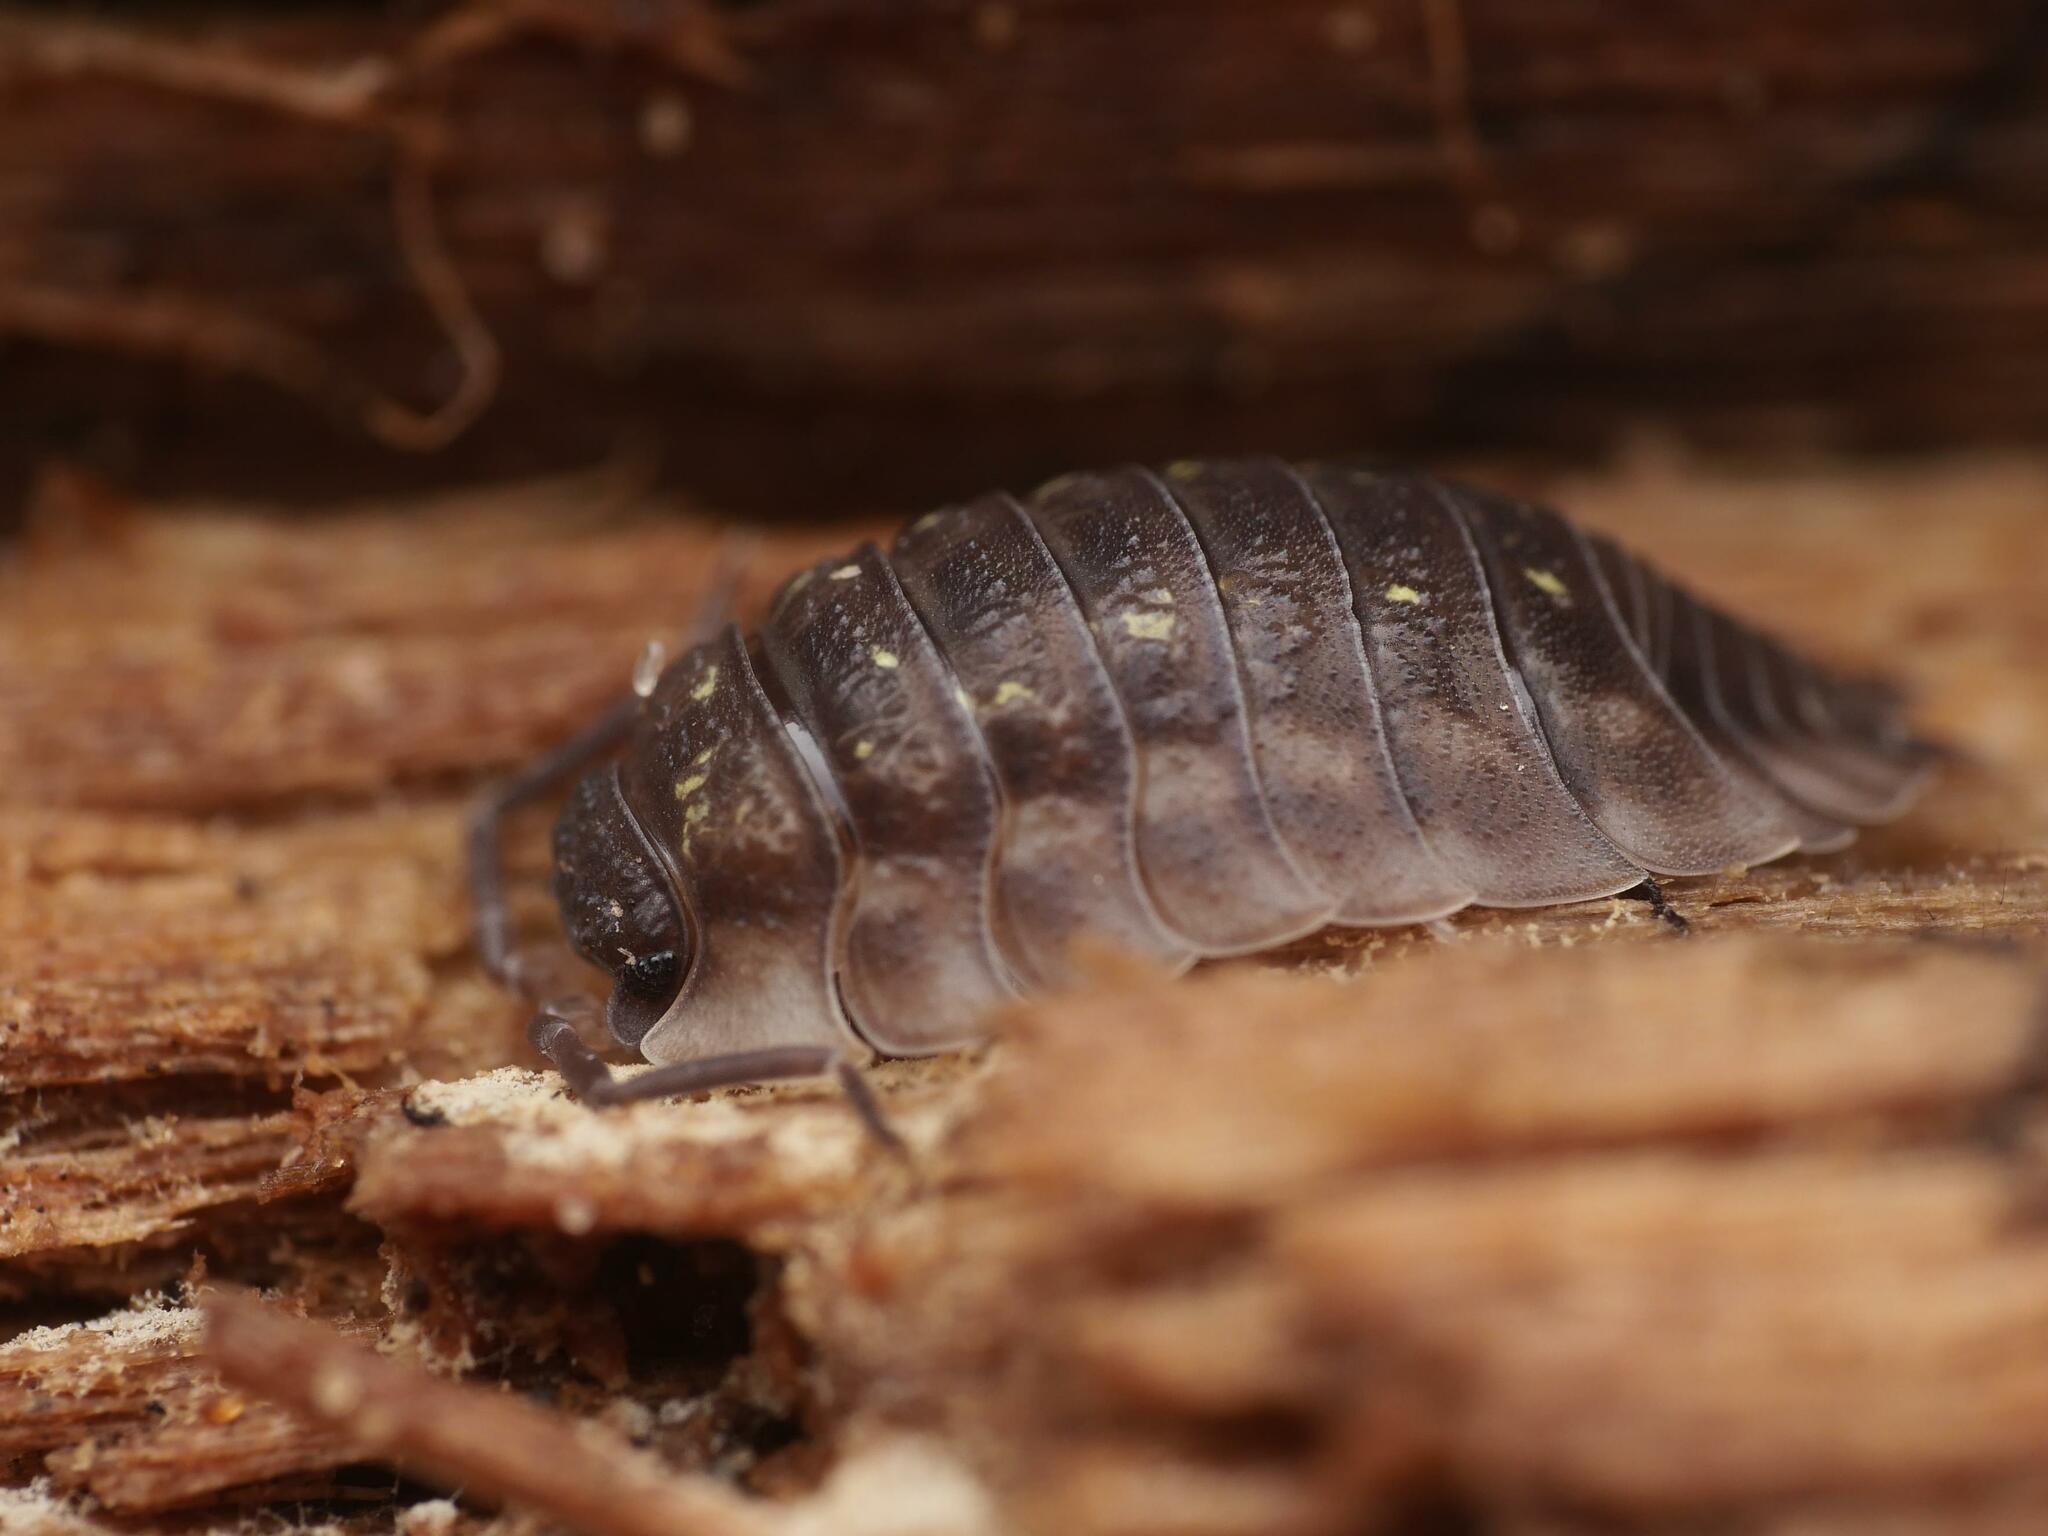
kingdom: Animalia
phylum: Arthropoda
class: Malacostraca
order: Isopoda
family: Oniscidae
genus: Oniscus
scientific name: Oniscus asellus
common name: Common shiny woodlouse
